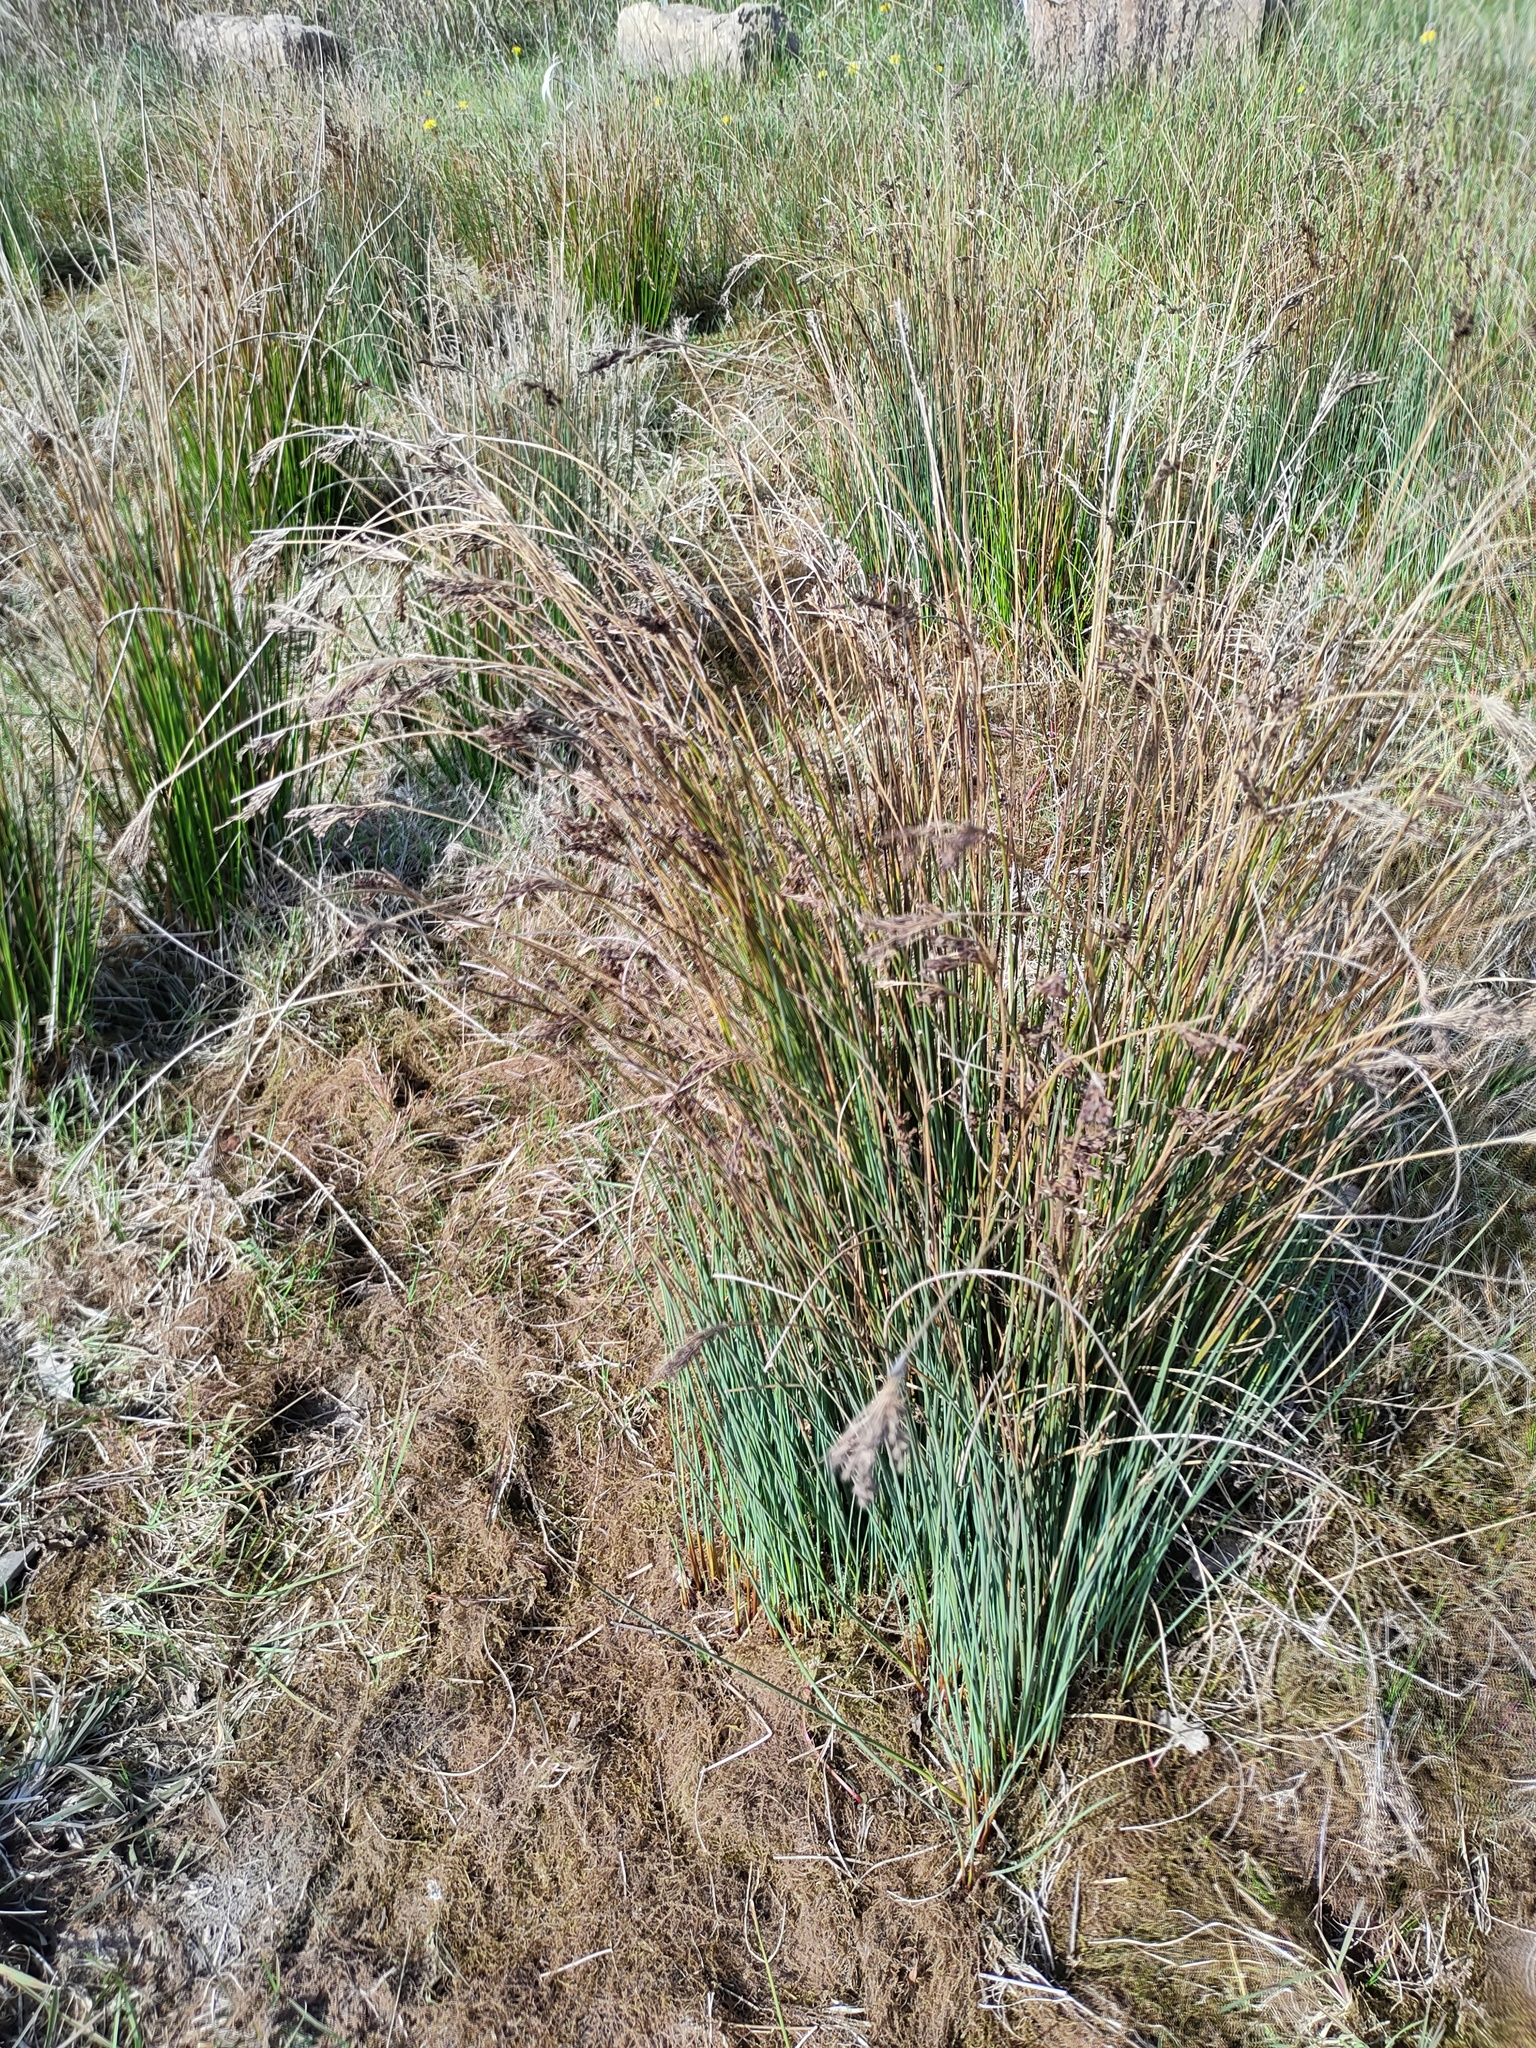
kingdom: Plantae
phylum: Tracheophyta
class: Liliopsida
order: Poales
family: Juncaceae
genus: Juncus
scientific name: Juncus inflexus
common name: Hard rush
